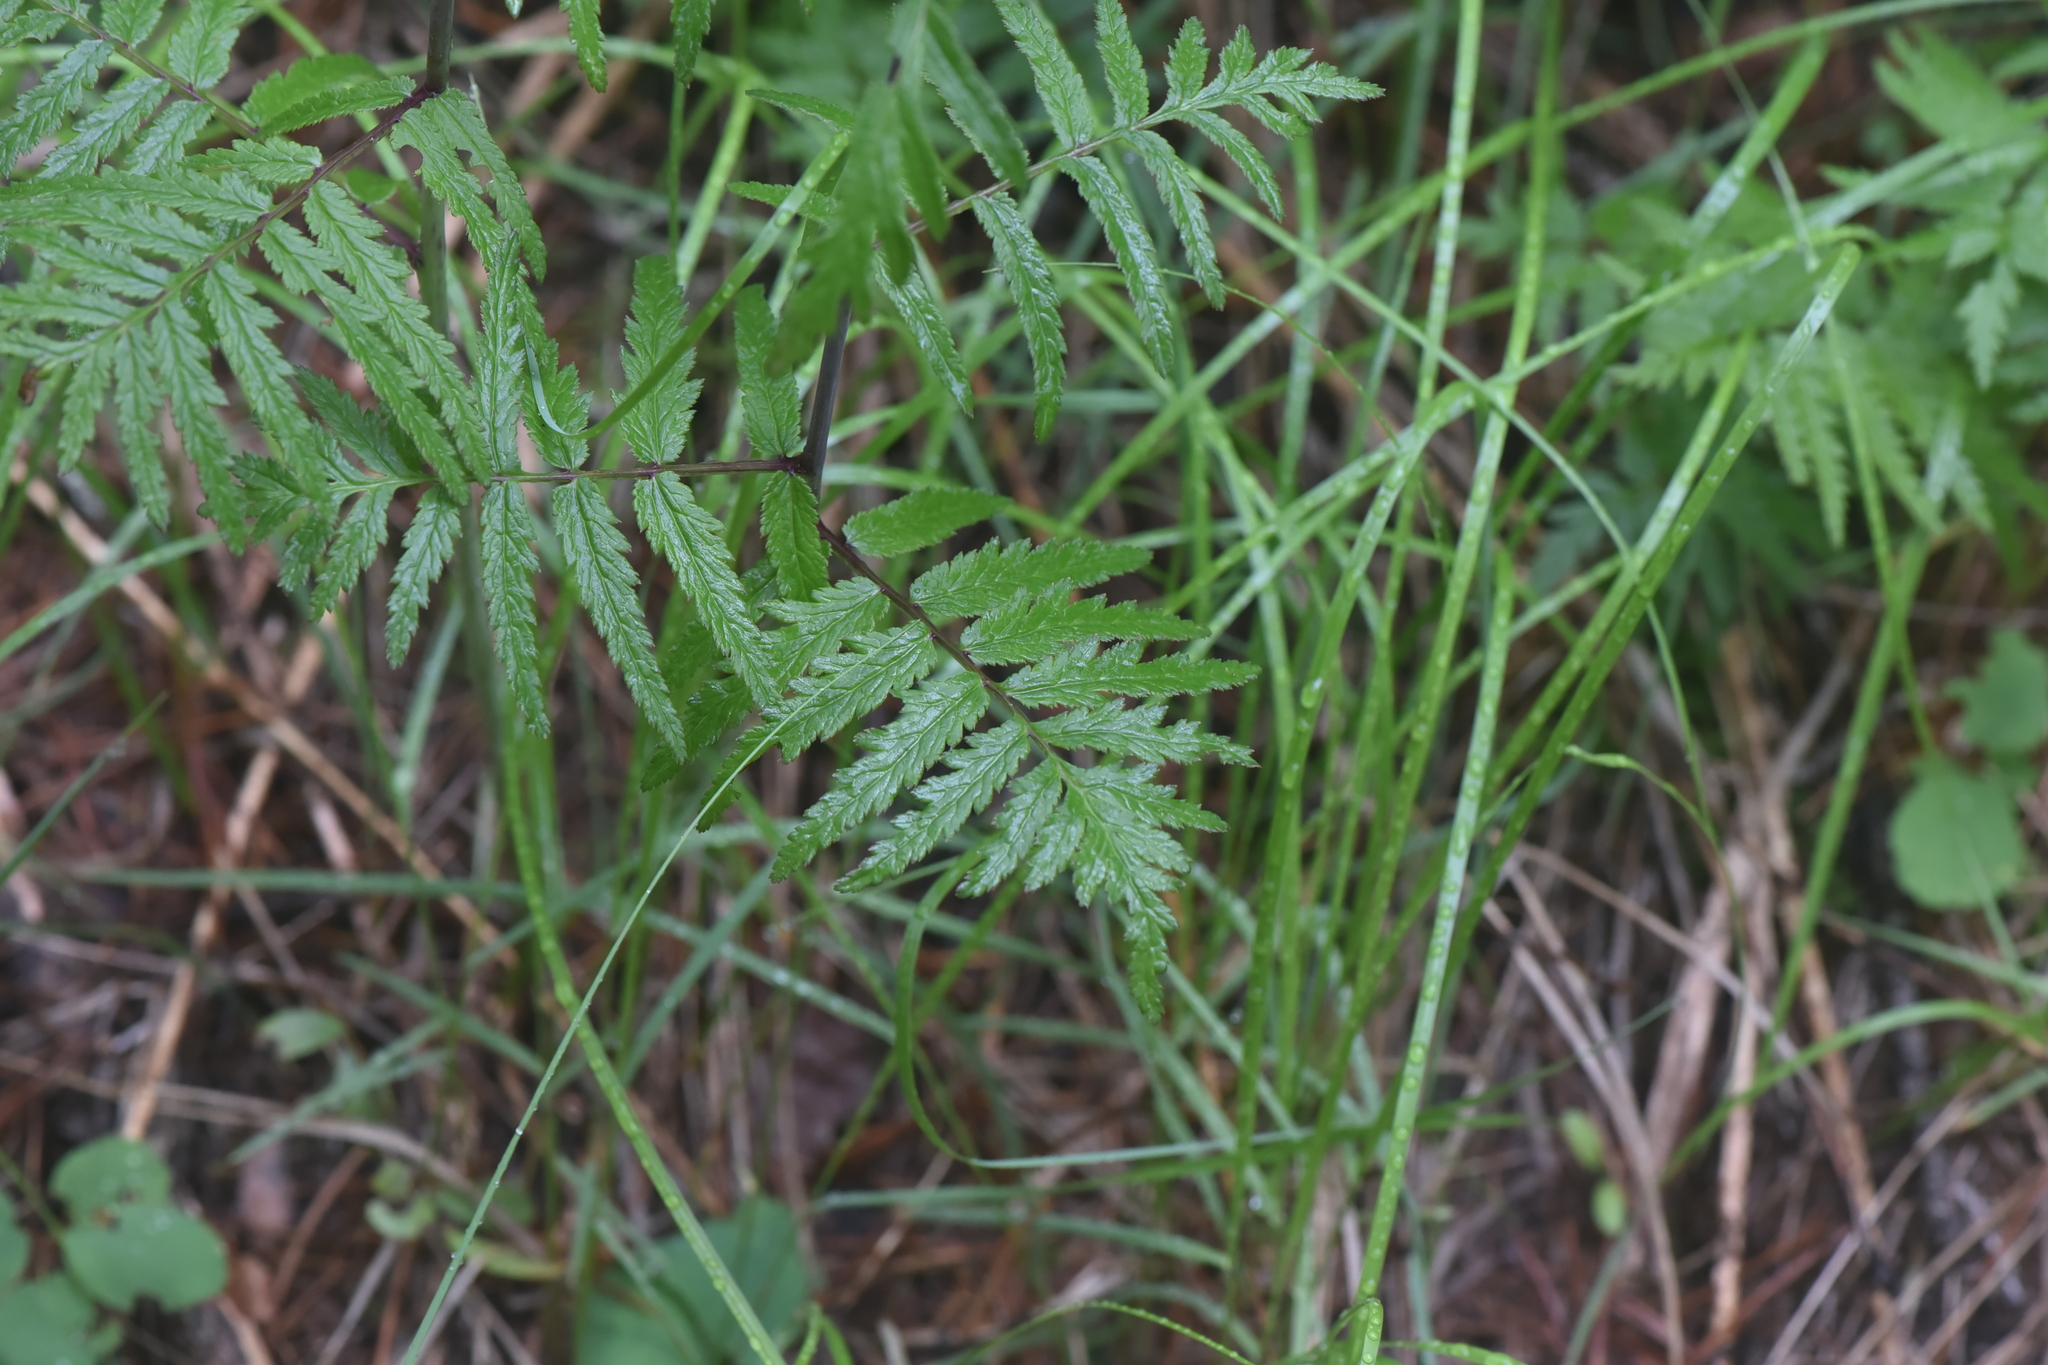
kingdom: Plantae
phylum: Tracheophyta
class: Magnoliopsida
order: Lamiales
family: Orobanchaceae
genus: Pedicularis
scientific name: Pedicularis bracteosa
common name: Bracted lousewort
